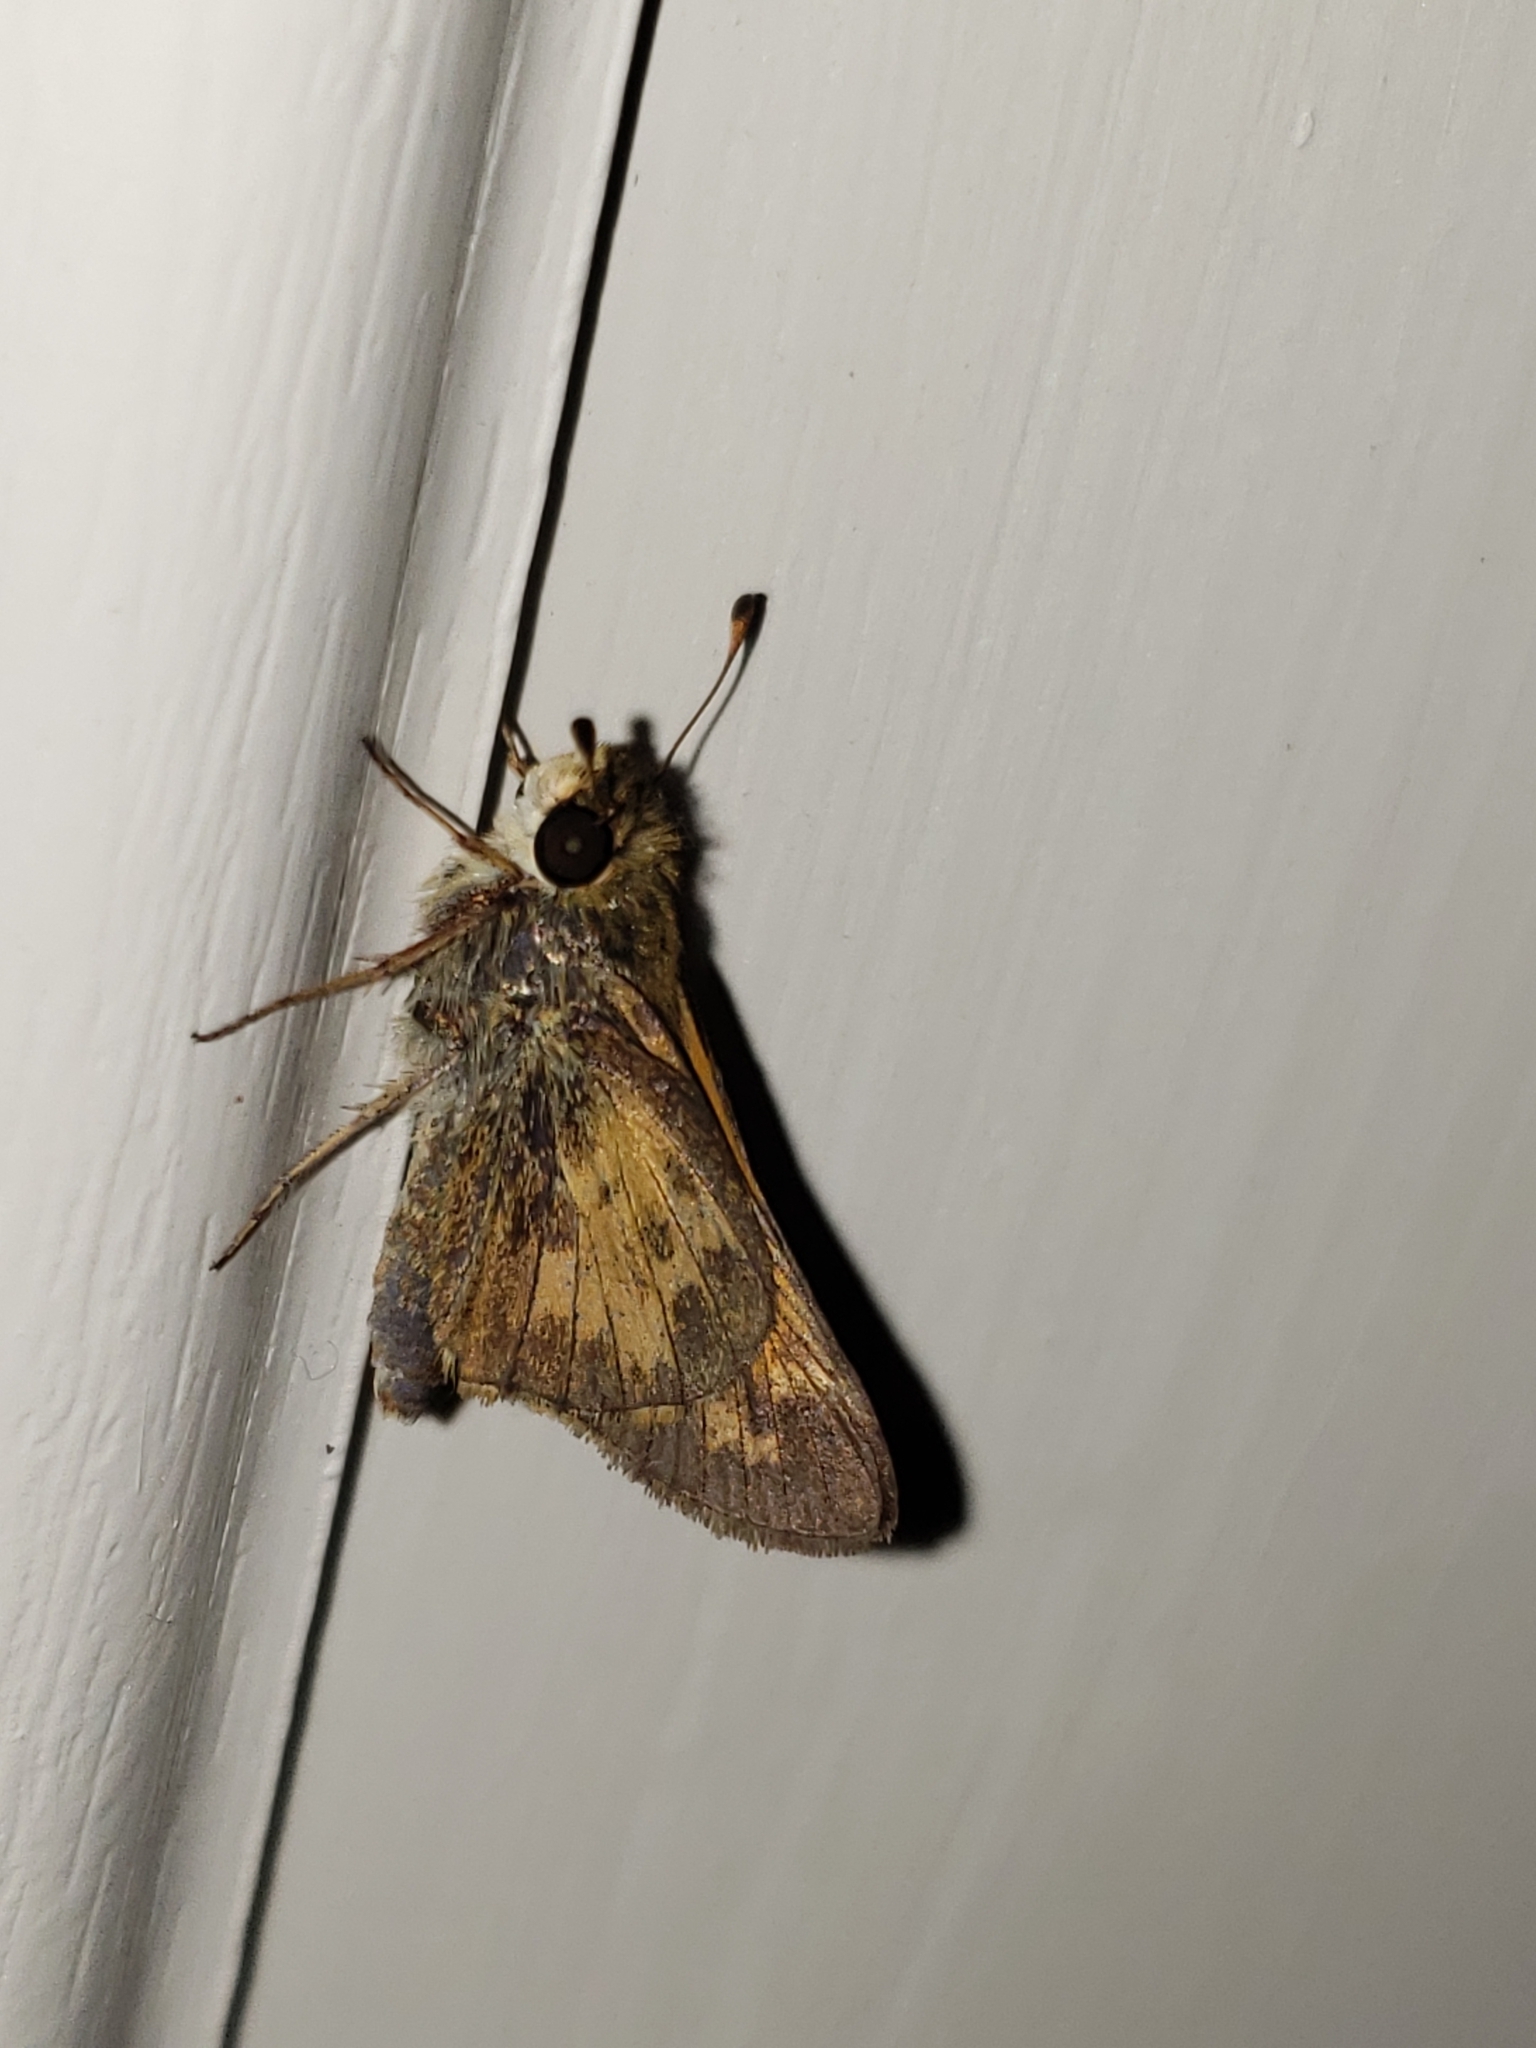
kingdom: Animalia
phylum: Arthropoda
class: Insecta
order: Lepidoptera
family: Hesperiidae
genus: Atalopedes
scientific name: Atalopedes
